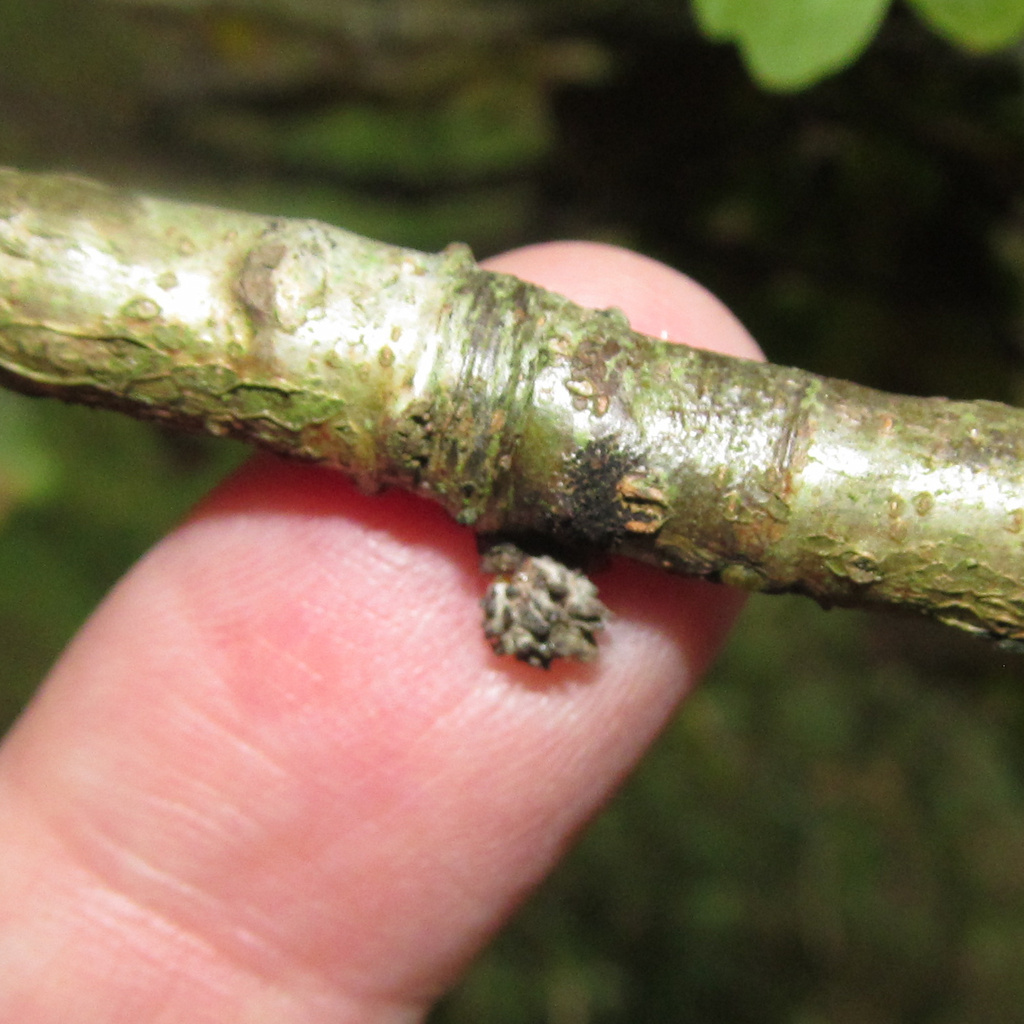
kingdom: Animalia
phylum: Arthropoda
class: Insecta
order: Hymenoptera
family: Cynipidae
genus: Andricus
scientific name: Andricus gemmeus
